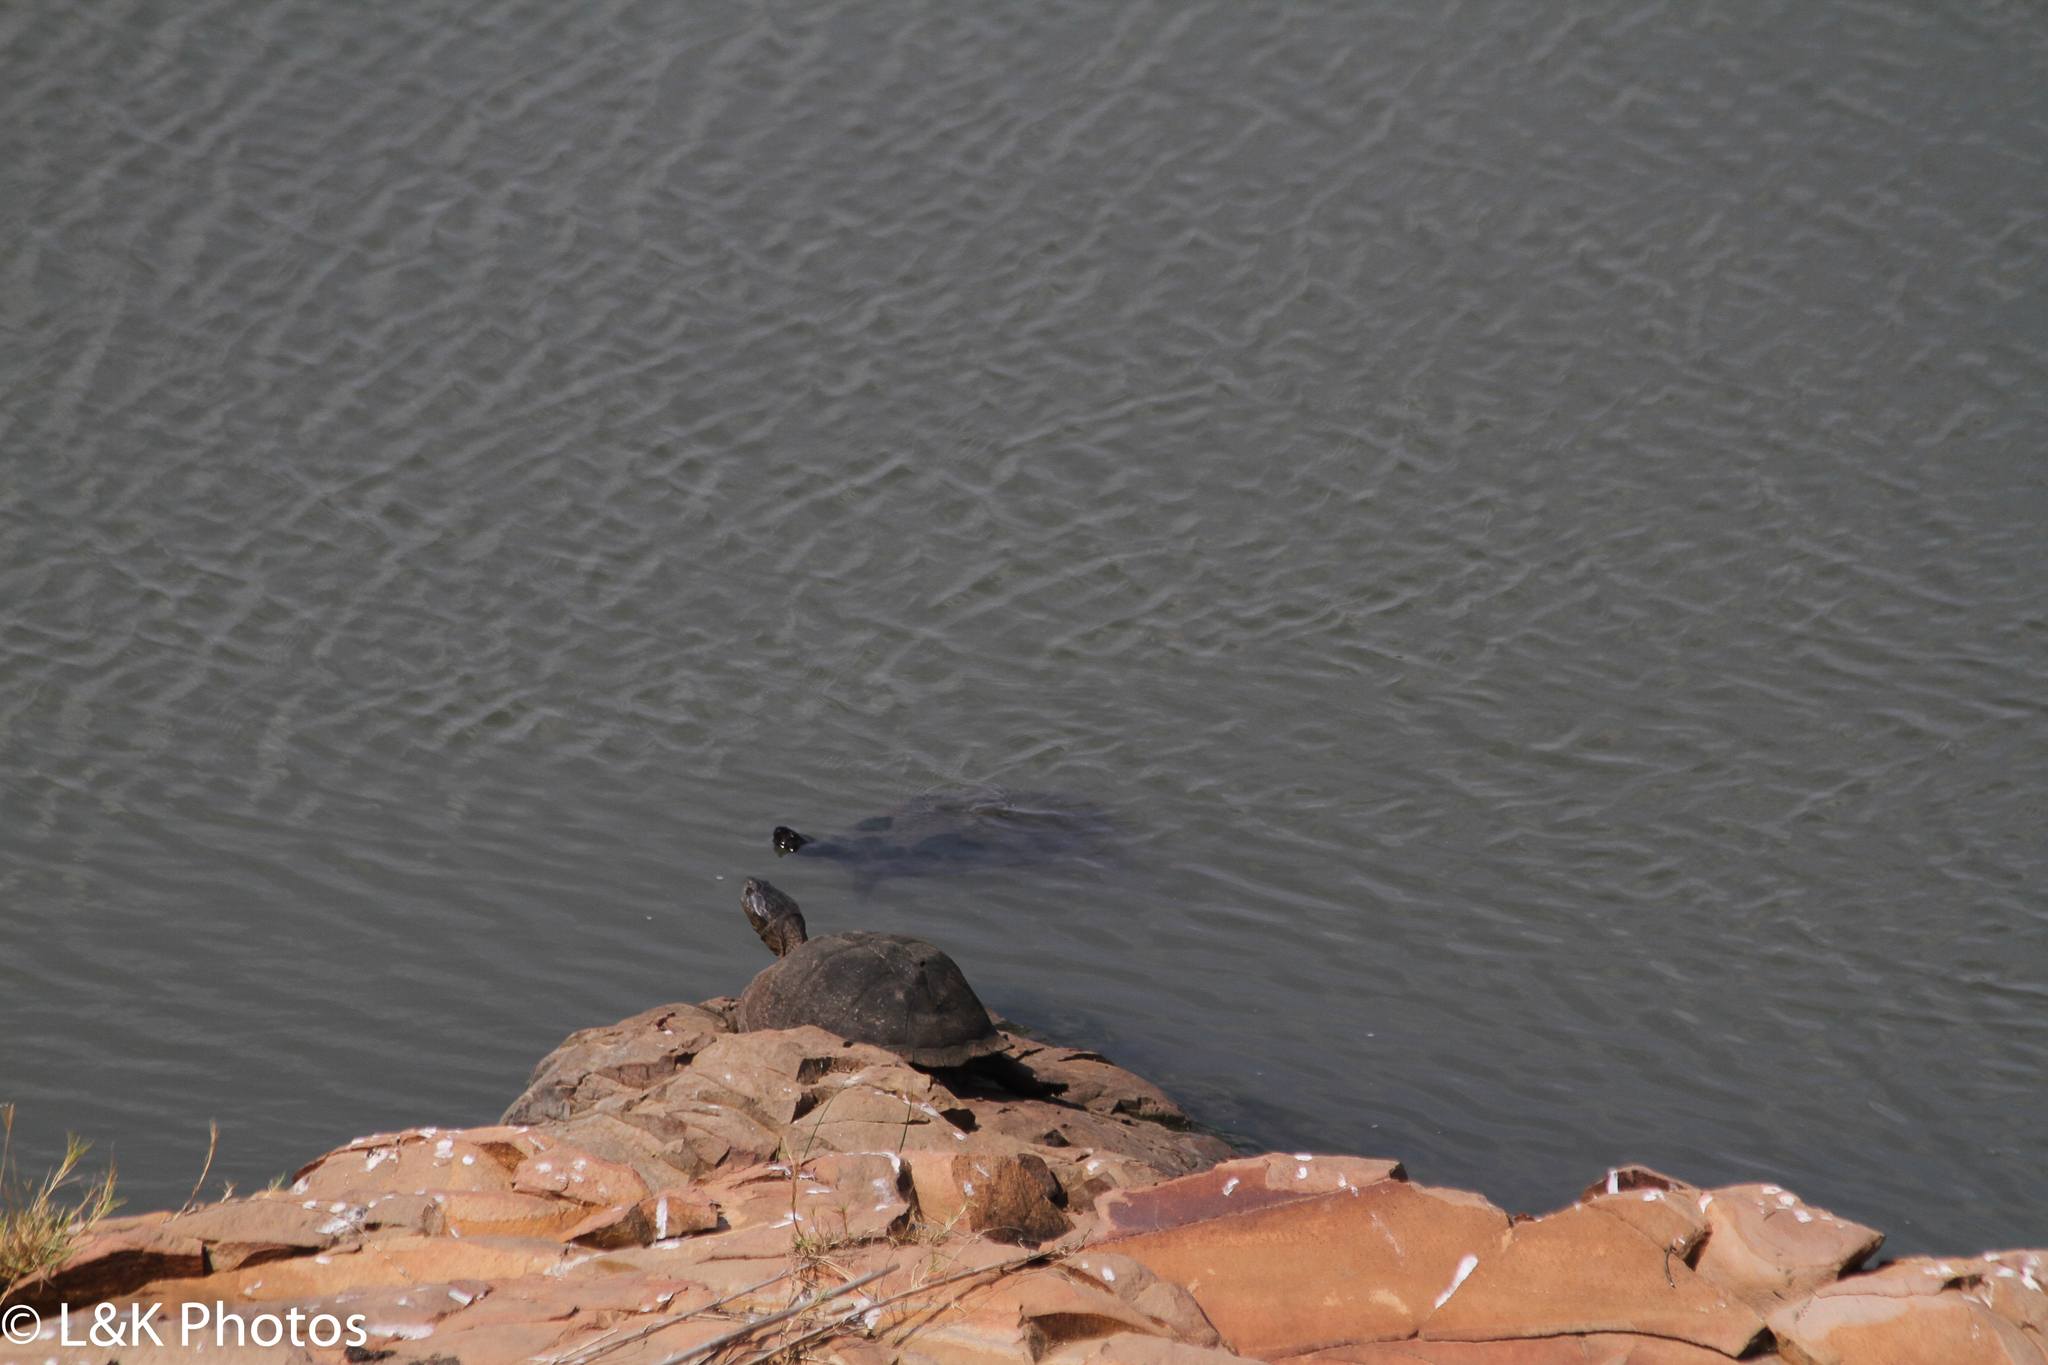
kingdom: Animalia
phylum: Chordata
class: Testudines
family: Pelomedusidae
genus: Pelusios
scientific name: Pelusios sinuatus
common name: Serrated hinged terrapin
